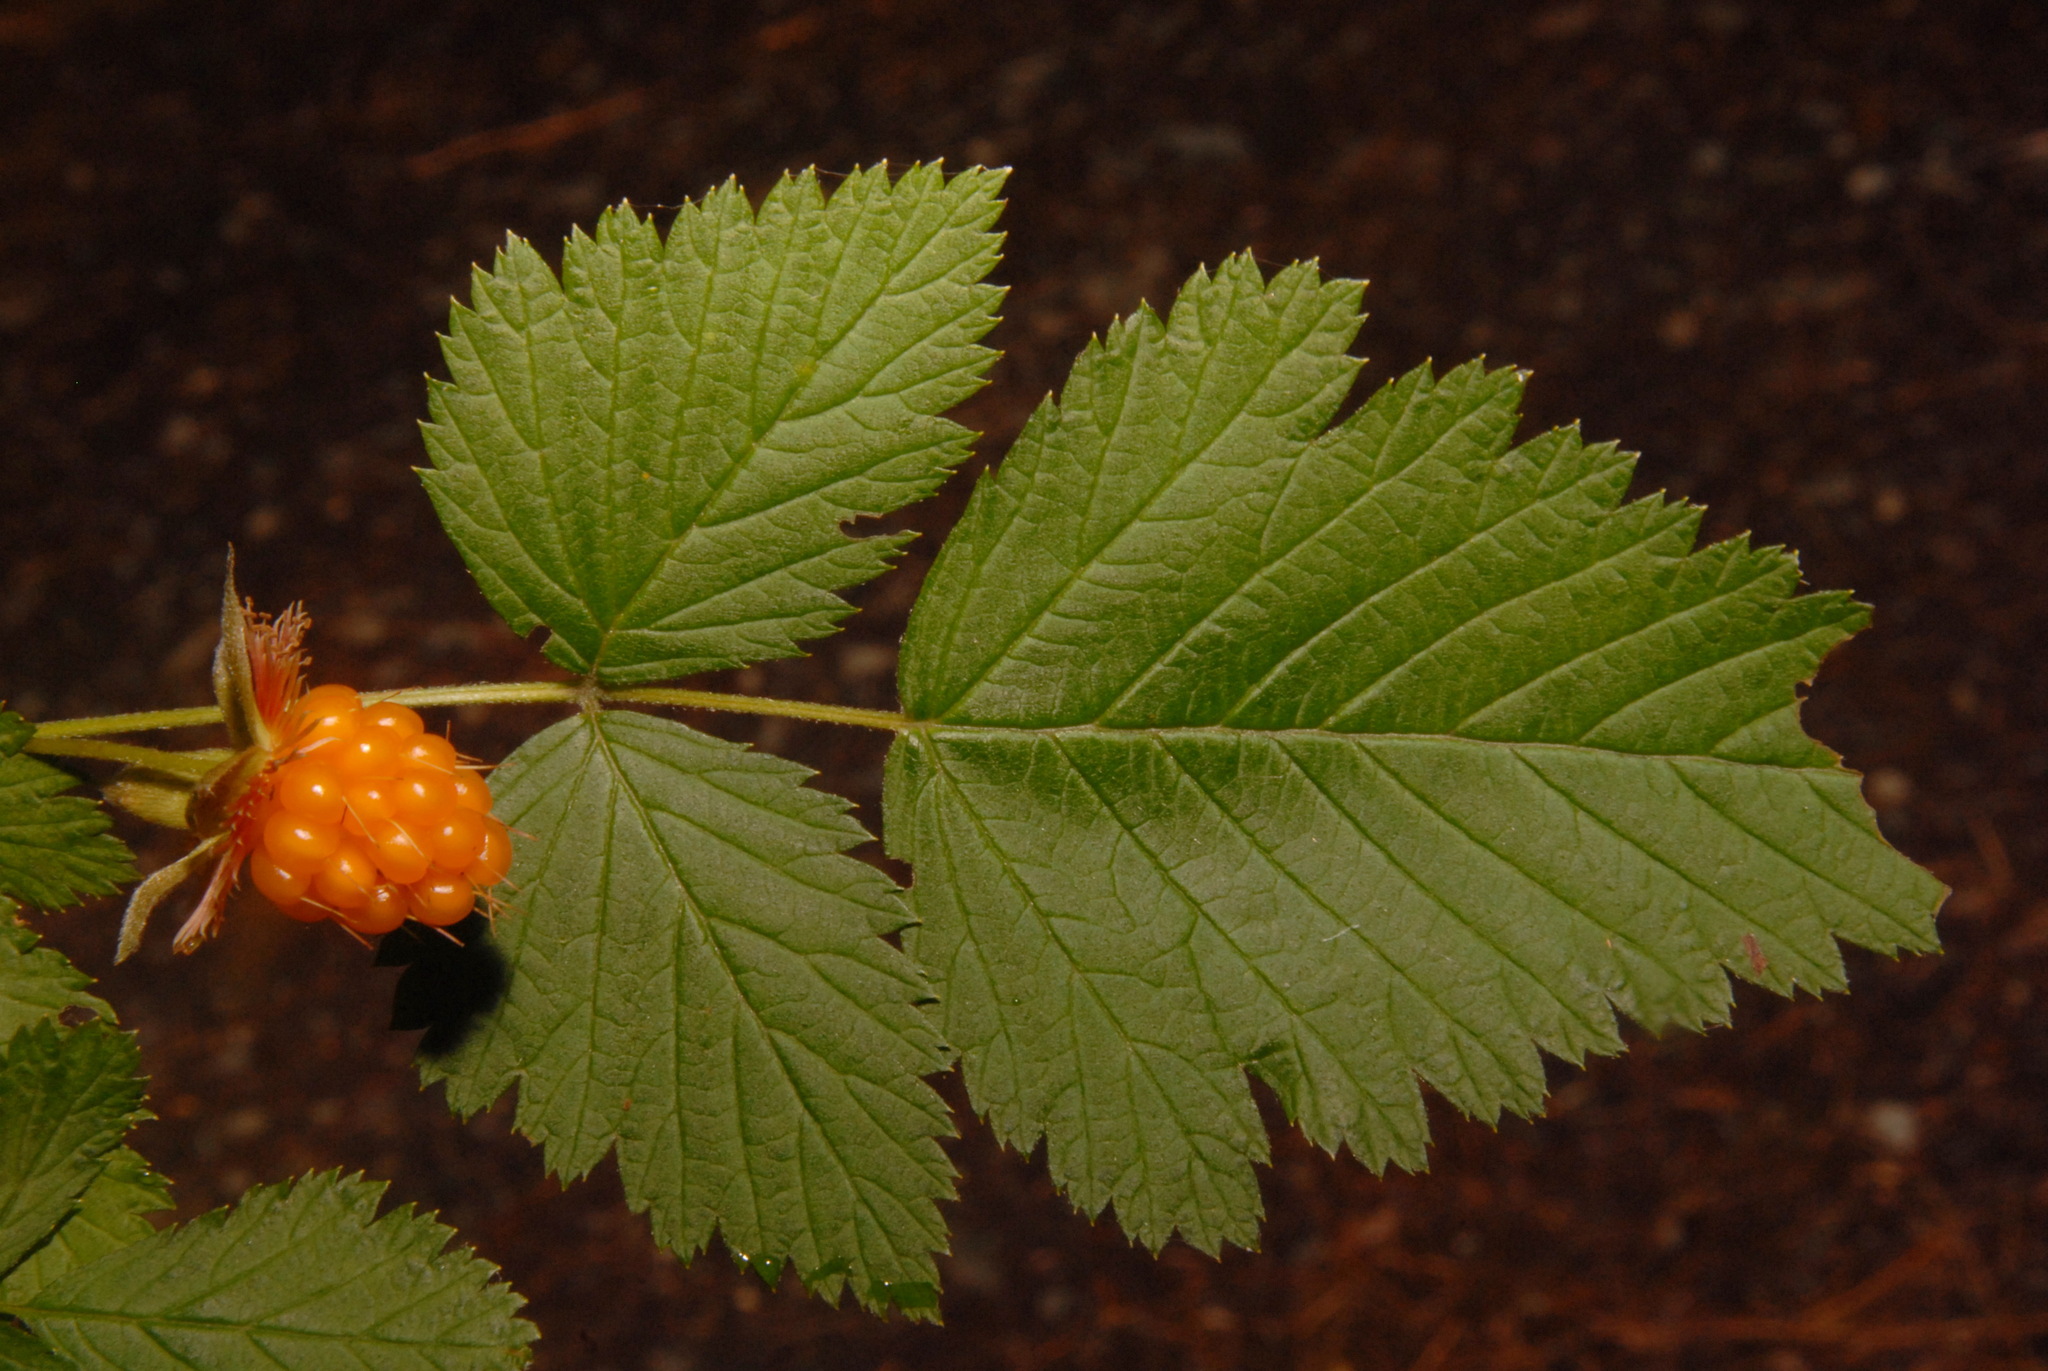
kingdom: Plantae
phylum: Tracheophyta
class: Magnoliopsida
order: Rosales
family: Rosaceae
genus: Rubus
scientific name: Rubus spectabilis
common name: Salmonberry
